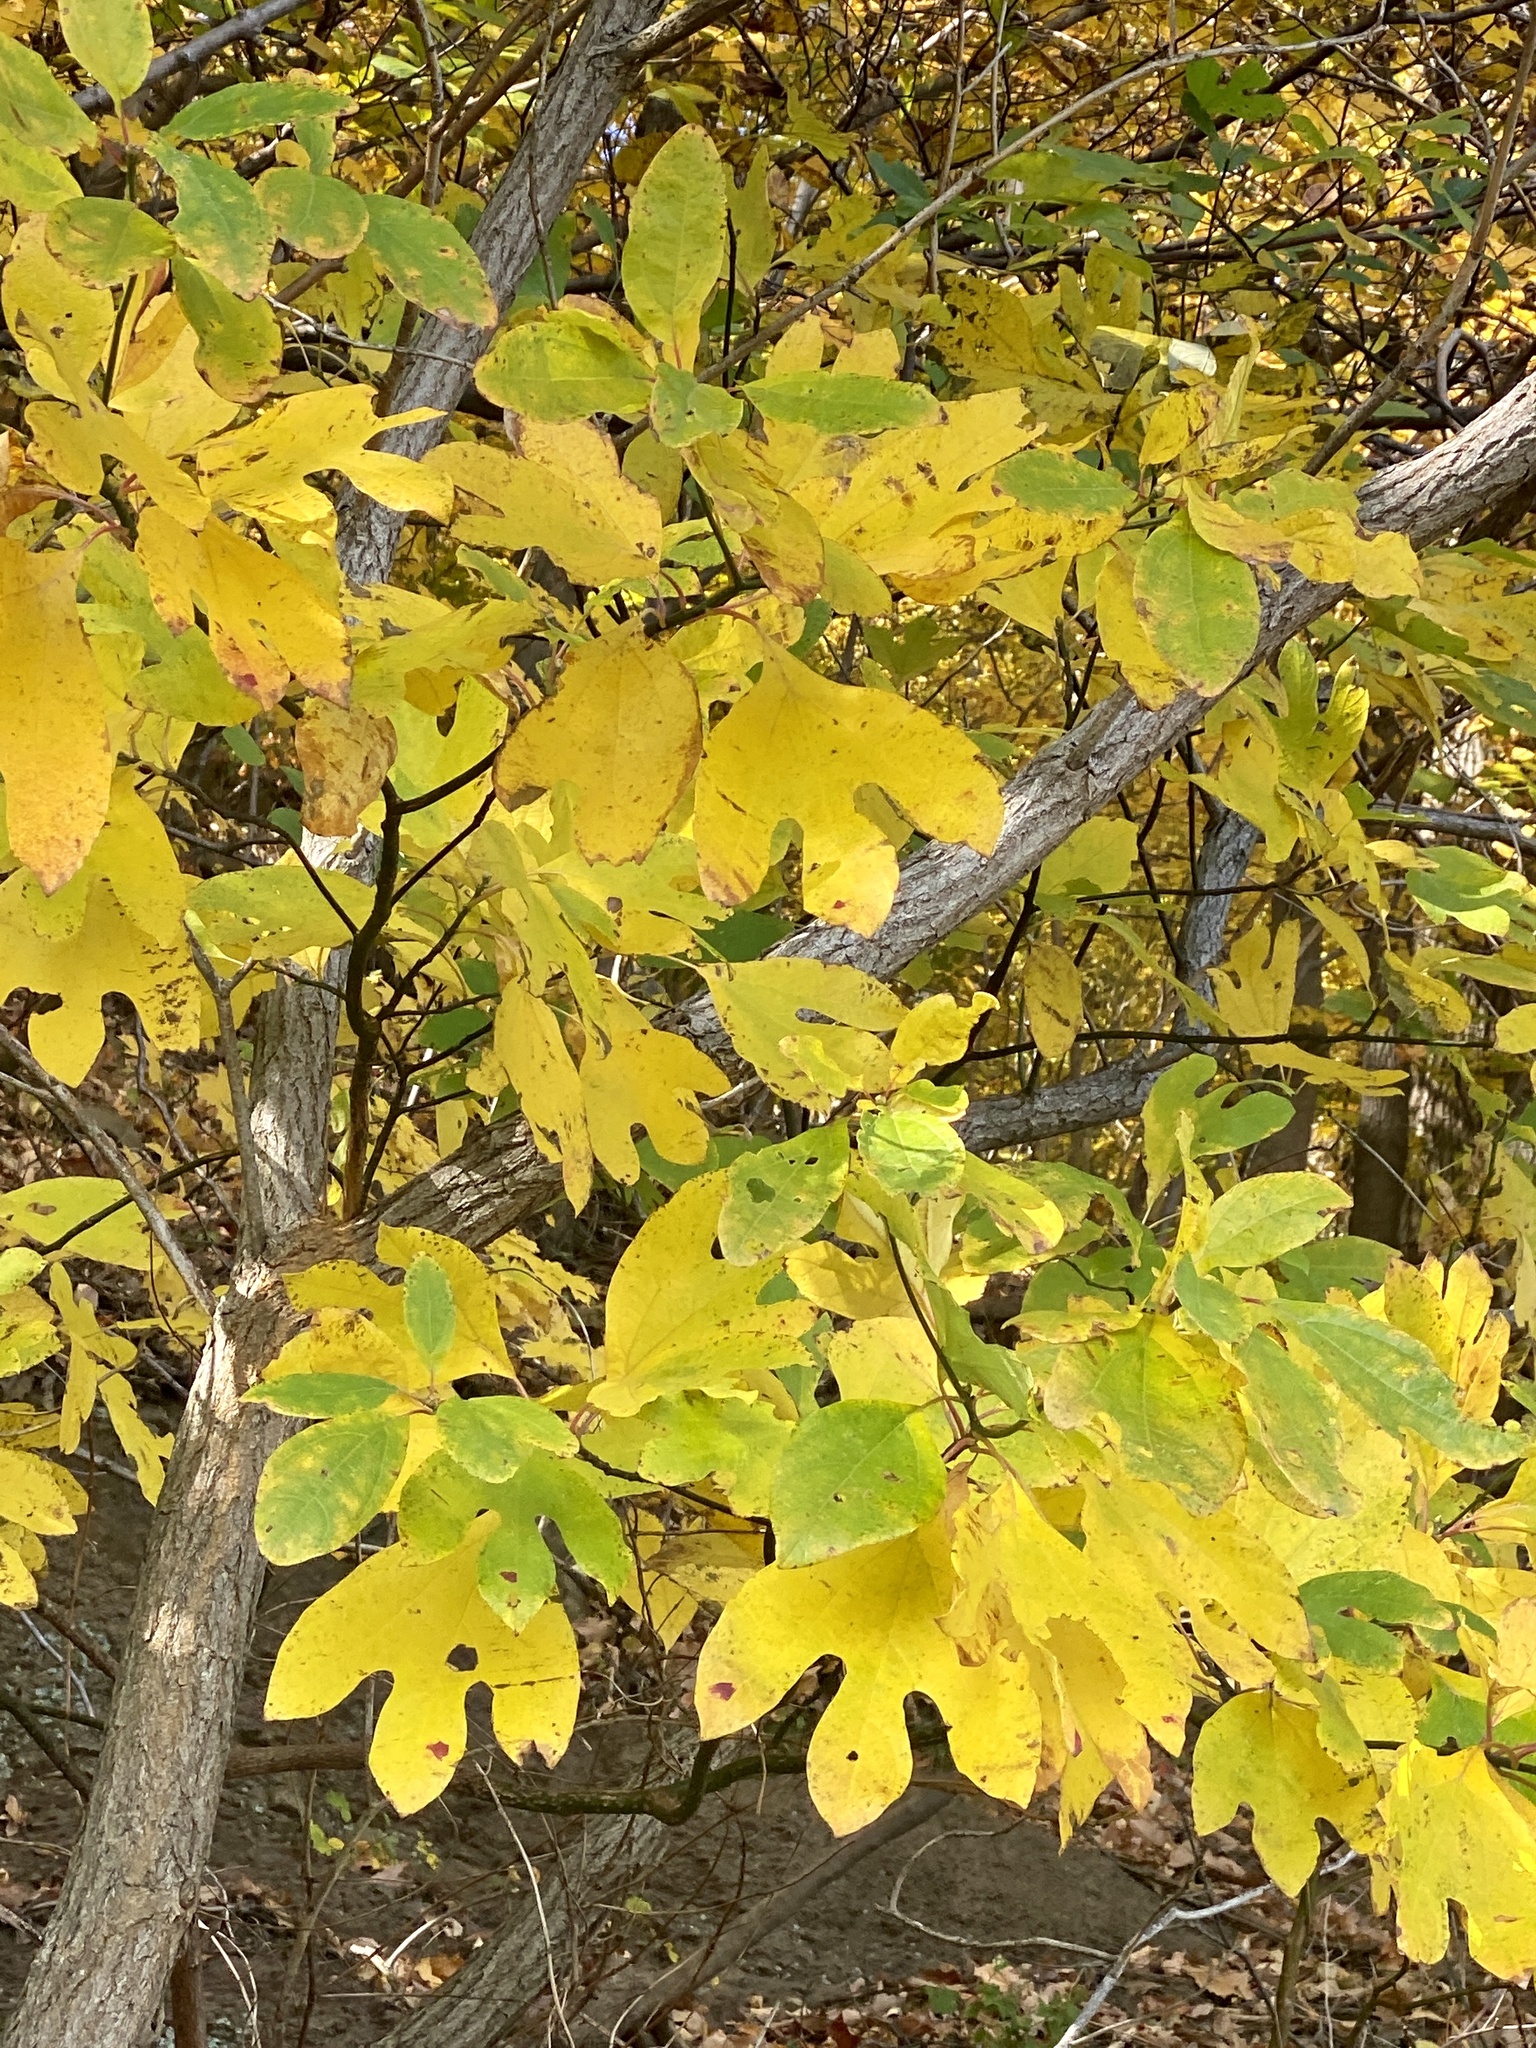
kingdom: Plantae
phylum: Tracheophyta
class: Magnoliopsida
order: Laurales
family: Lauraceae
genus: Sassafras
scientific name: Sassafras albidum
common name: Sassafras
